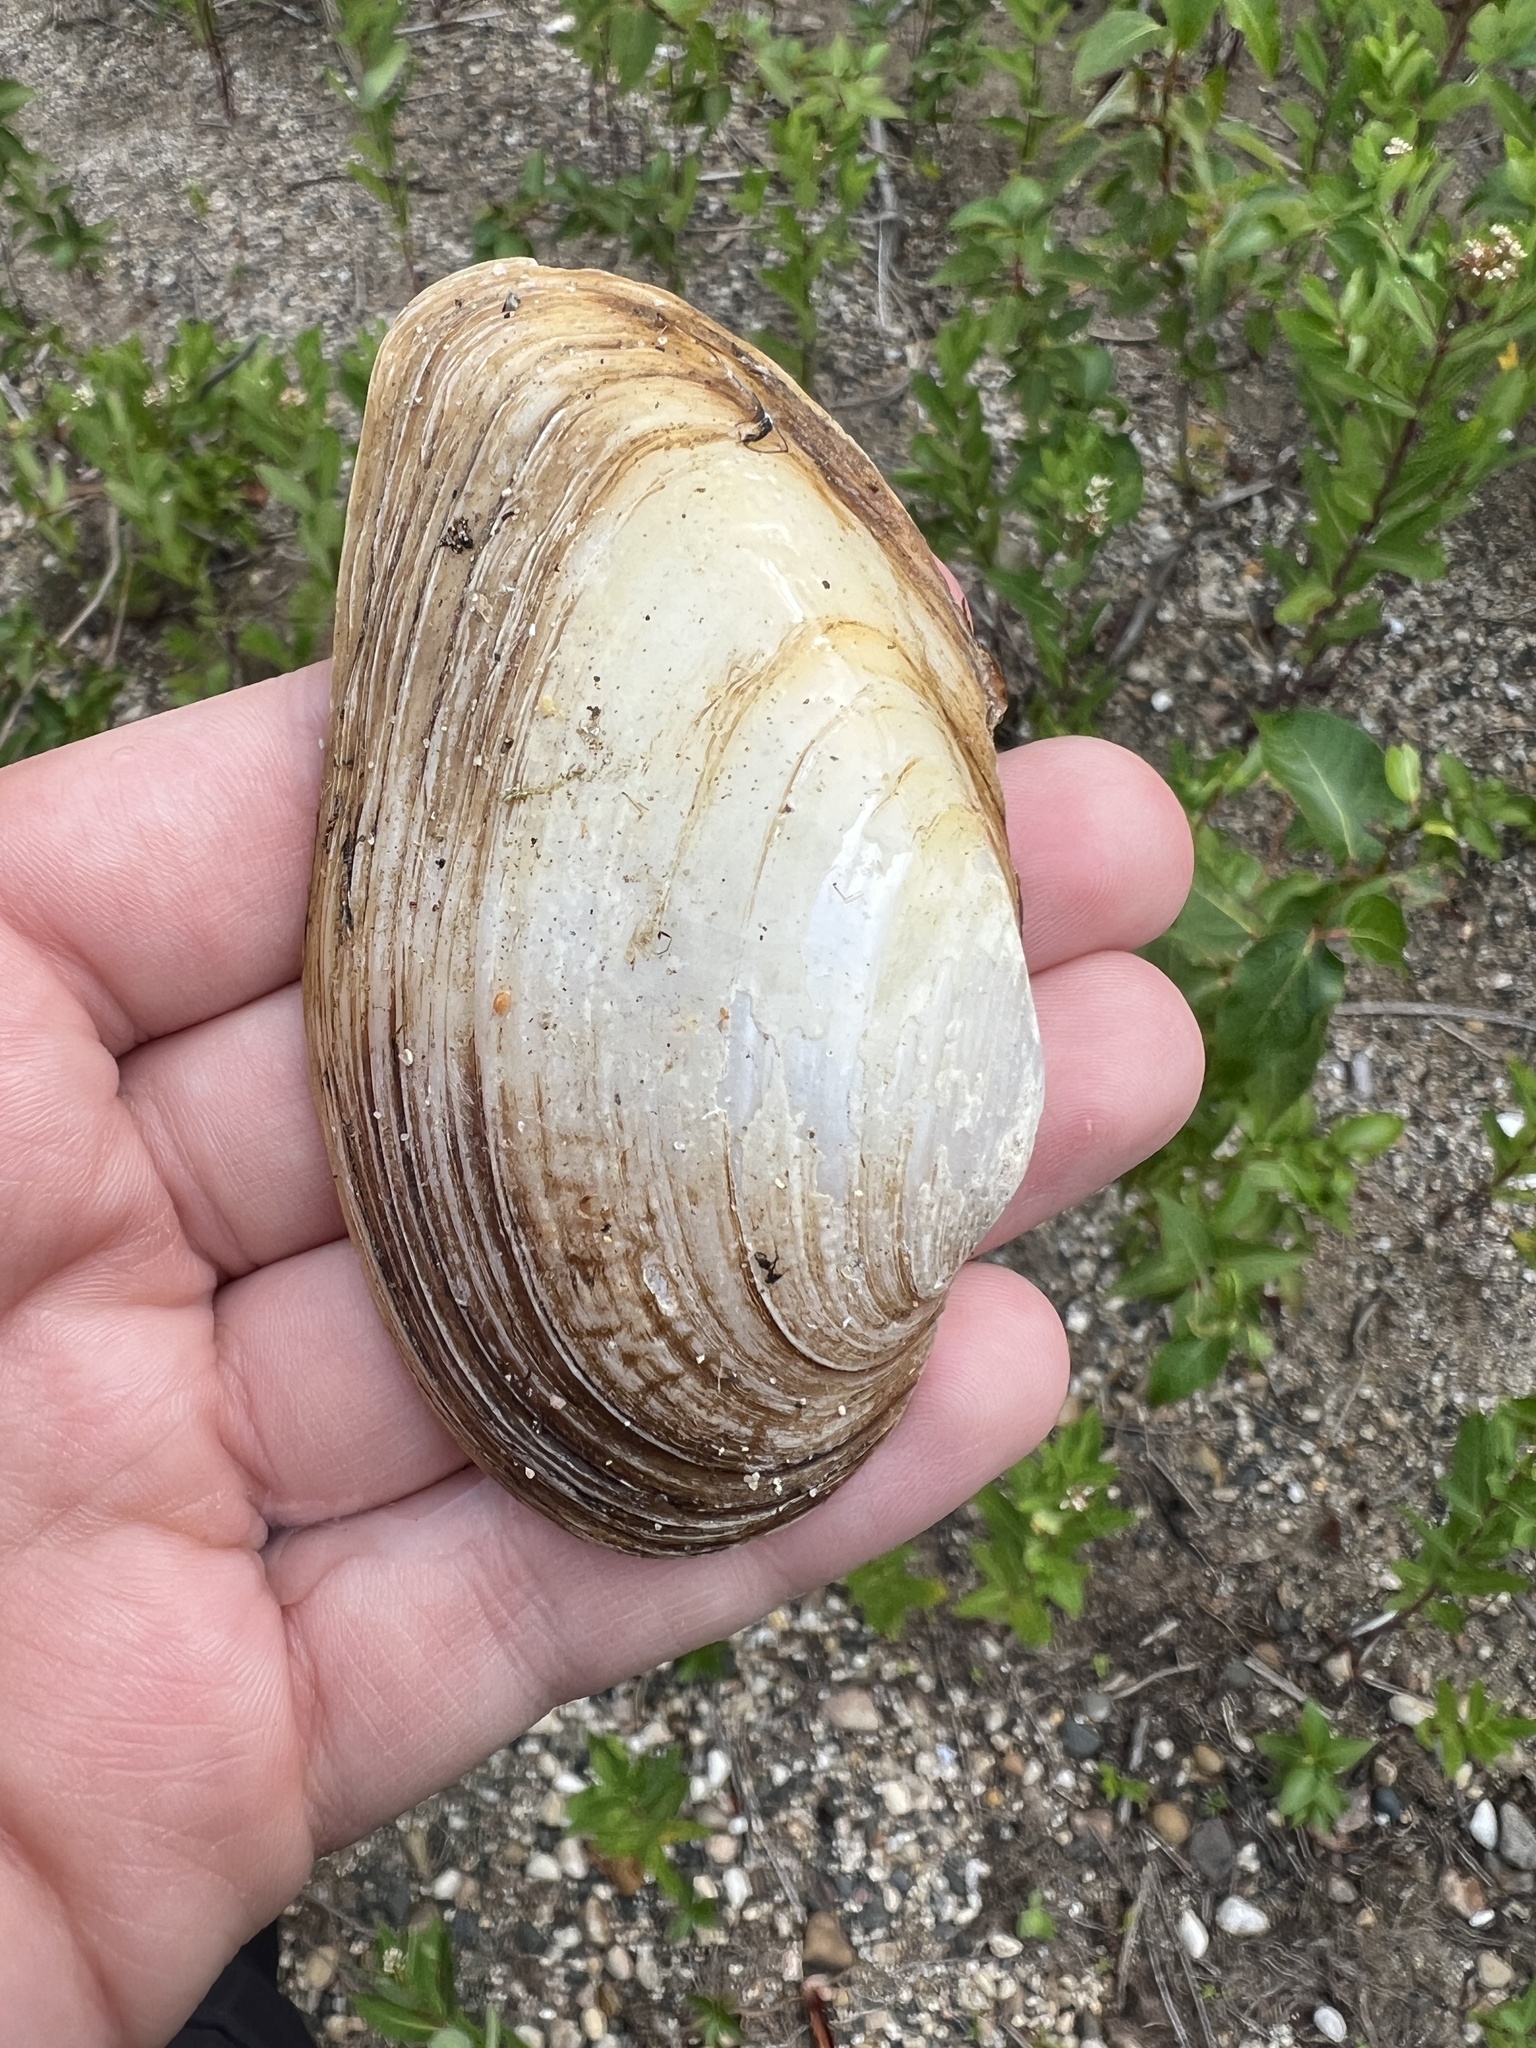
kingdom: Animalia
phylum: Mollusca
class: Bivalvia
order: Unionida
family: Unionidae
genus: Pyganodon
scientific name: Pyganodon grandis
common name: Giant floater
